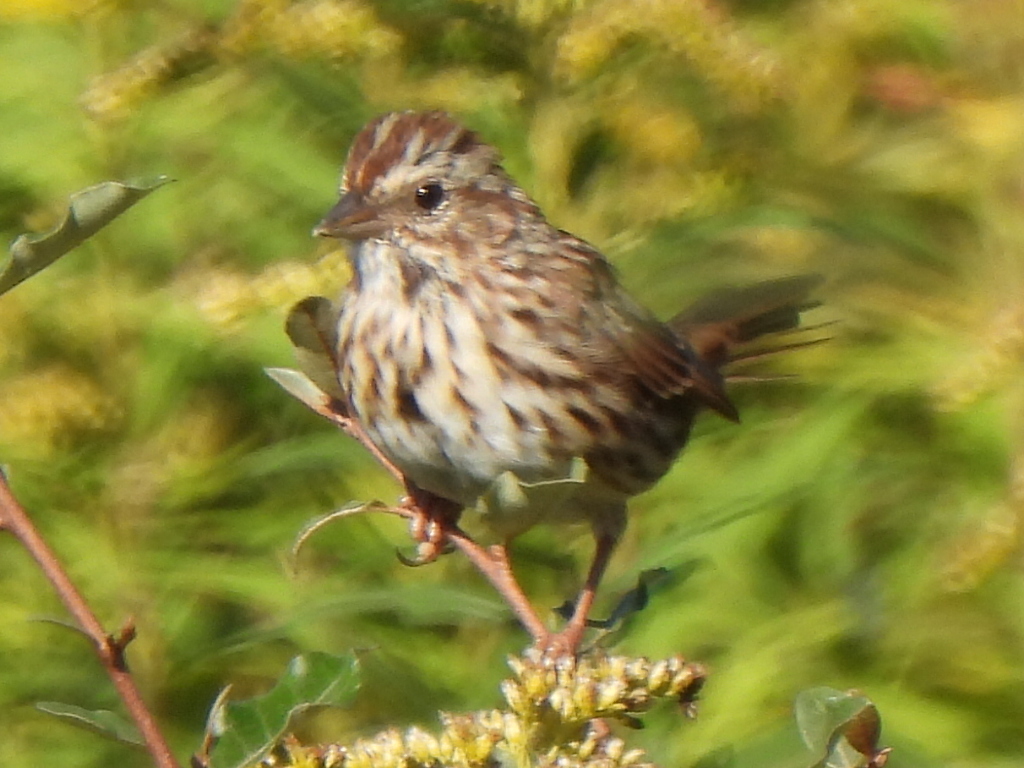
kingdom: Animalia
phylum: Chordata
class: Aves
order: Passeriformes
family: Passerellidae
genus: Melospiza
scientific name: Melospiza melodia
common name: Song sparrow
